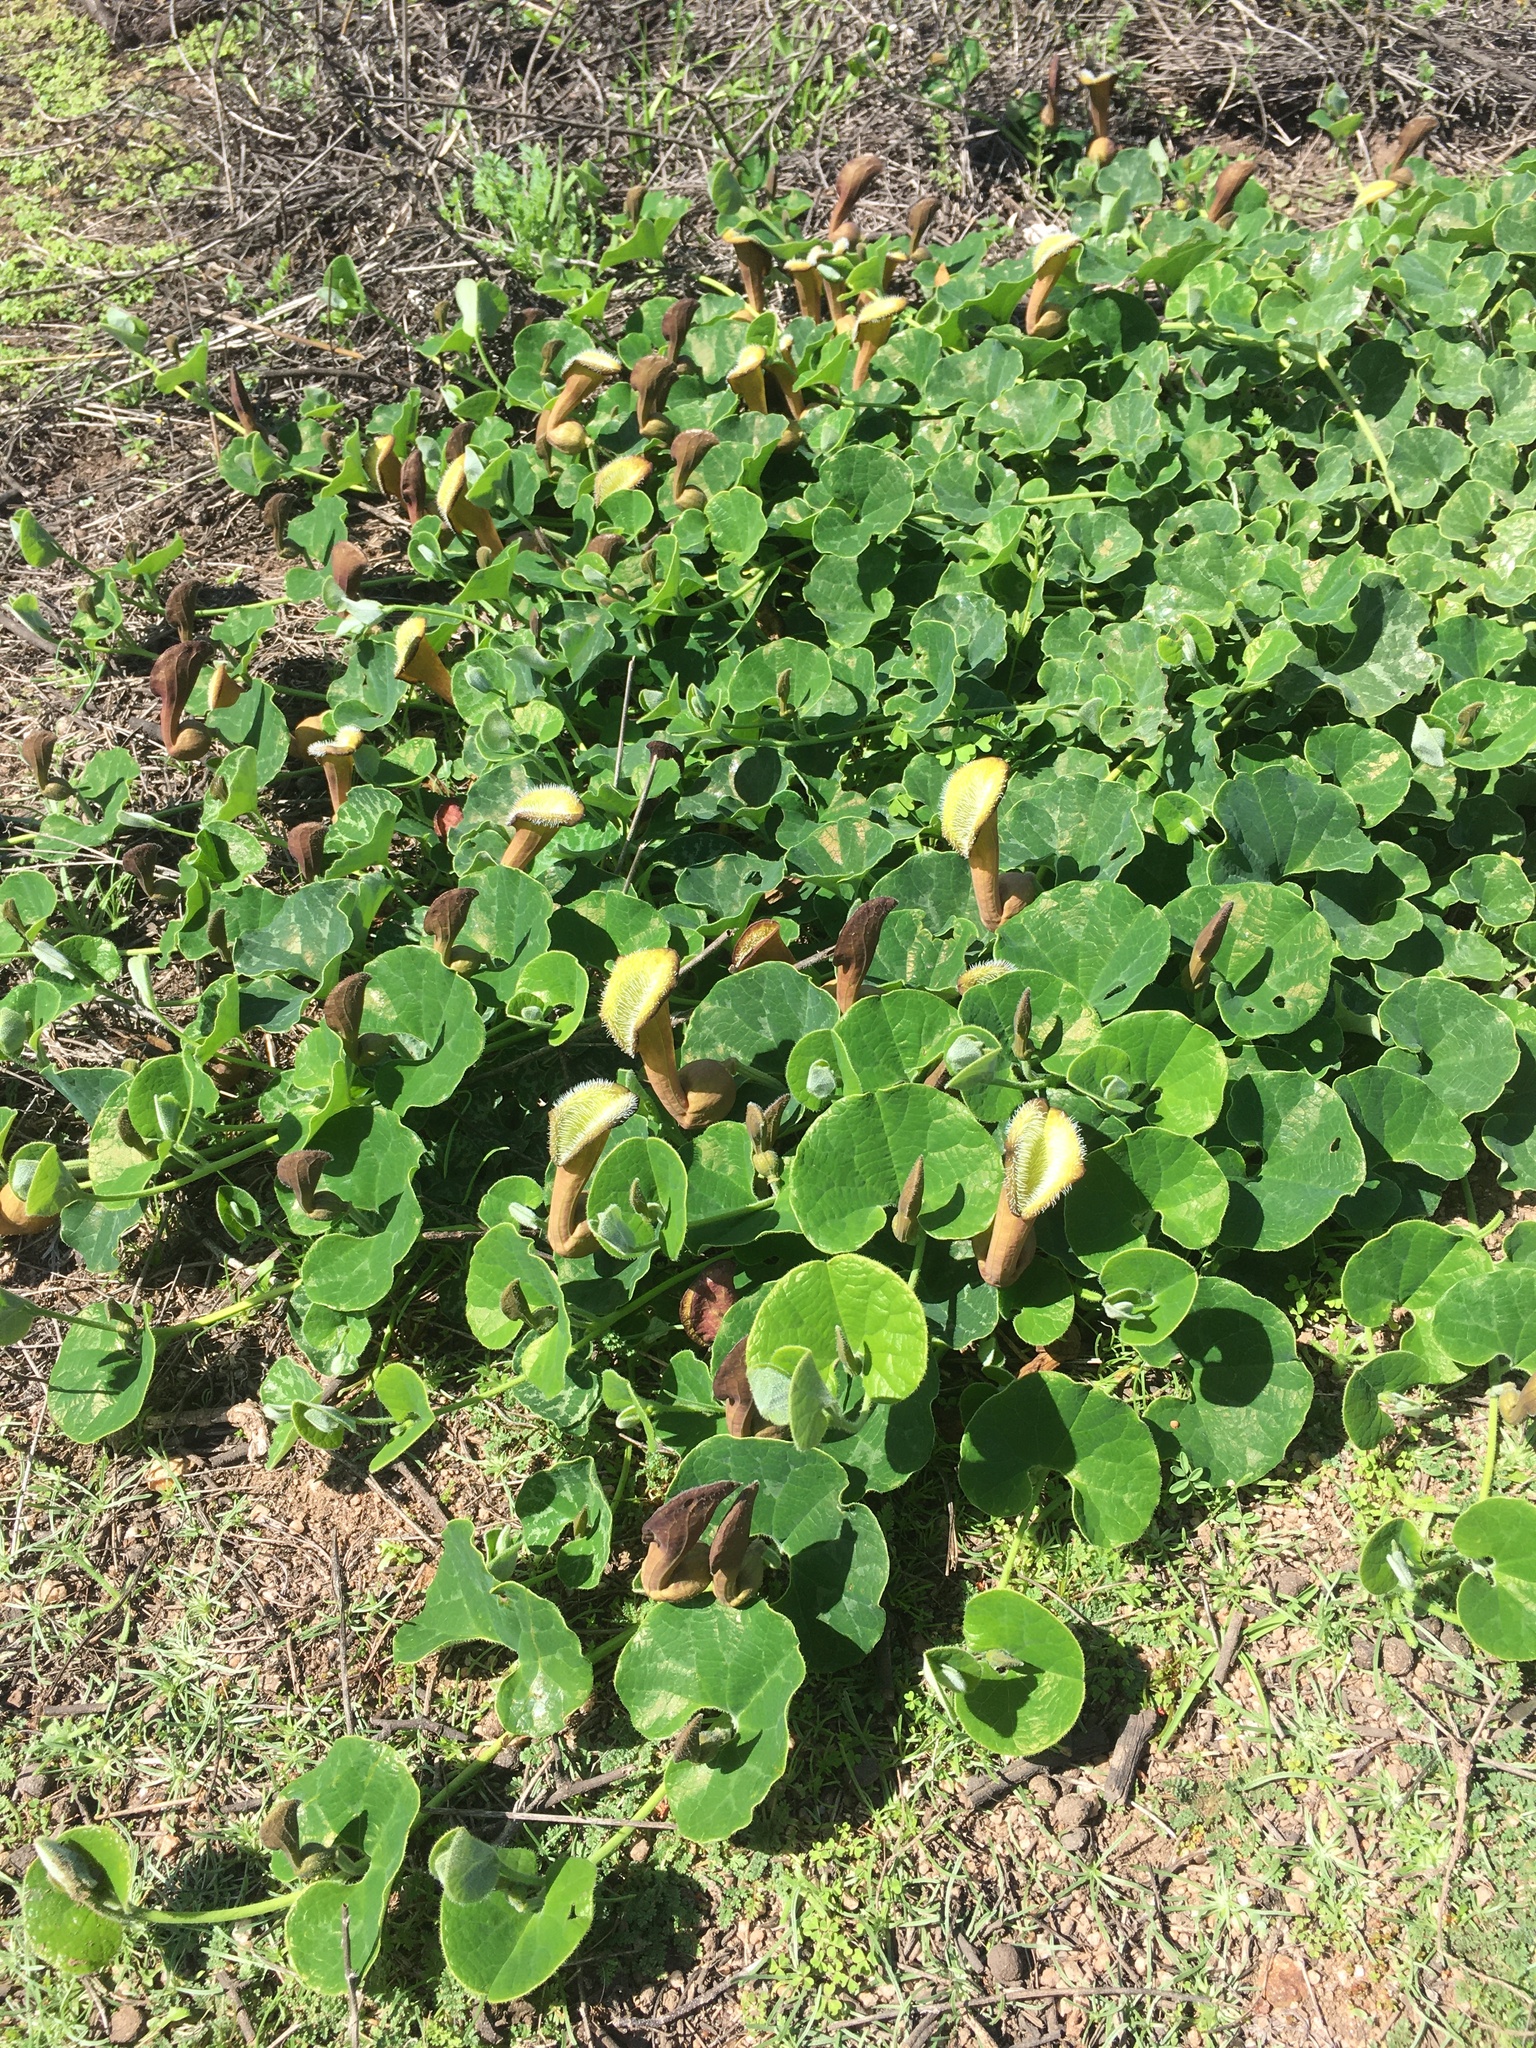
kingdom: Plantae
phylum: Tracheophyta
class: Magnoliopsida
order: Piperales
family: Aristolochiaceae
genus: Aristolochia
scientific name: Aristolochia chilensis
